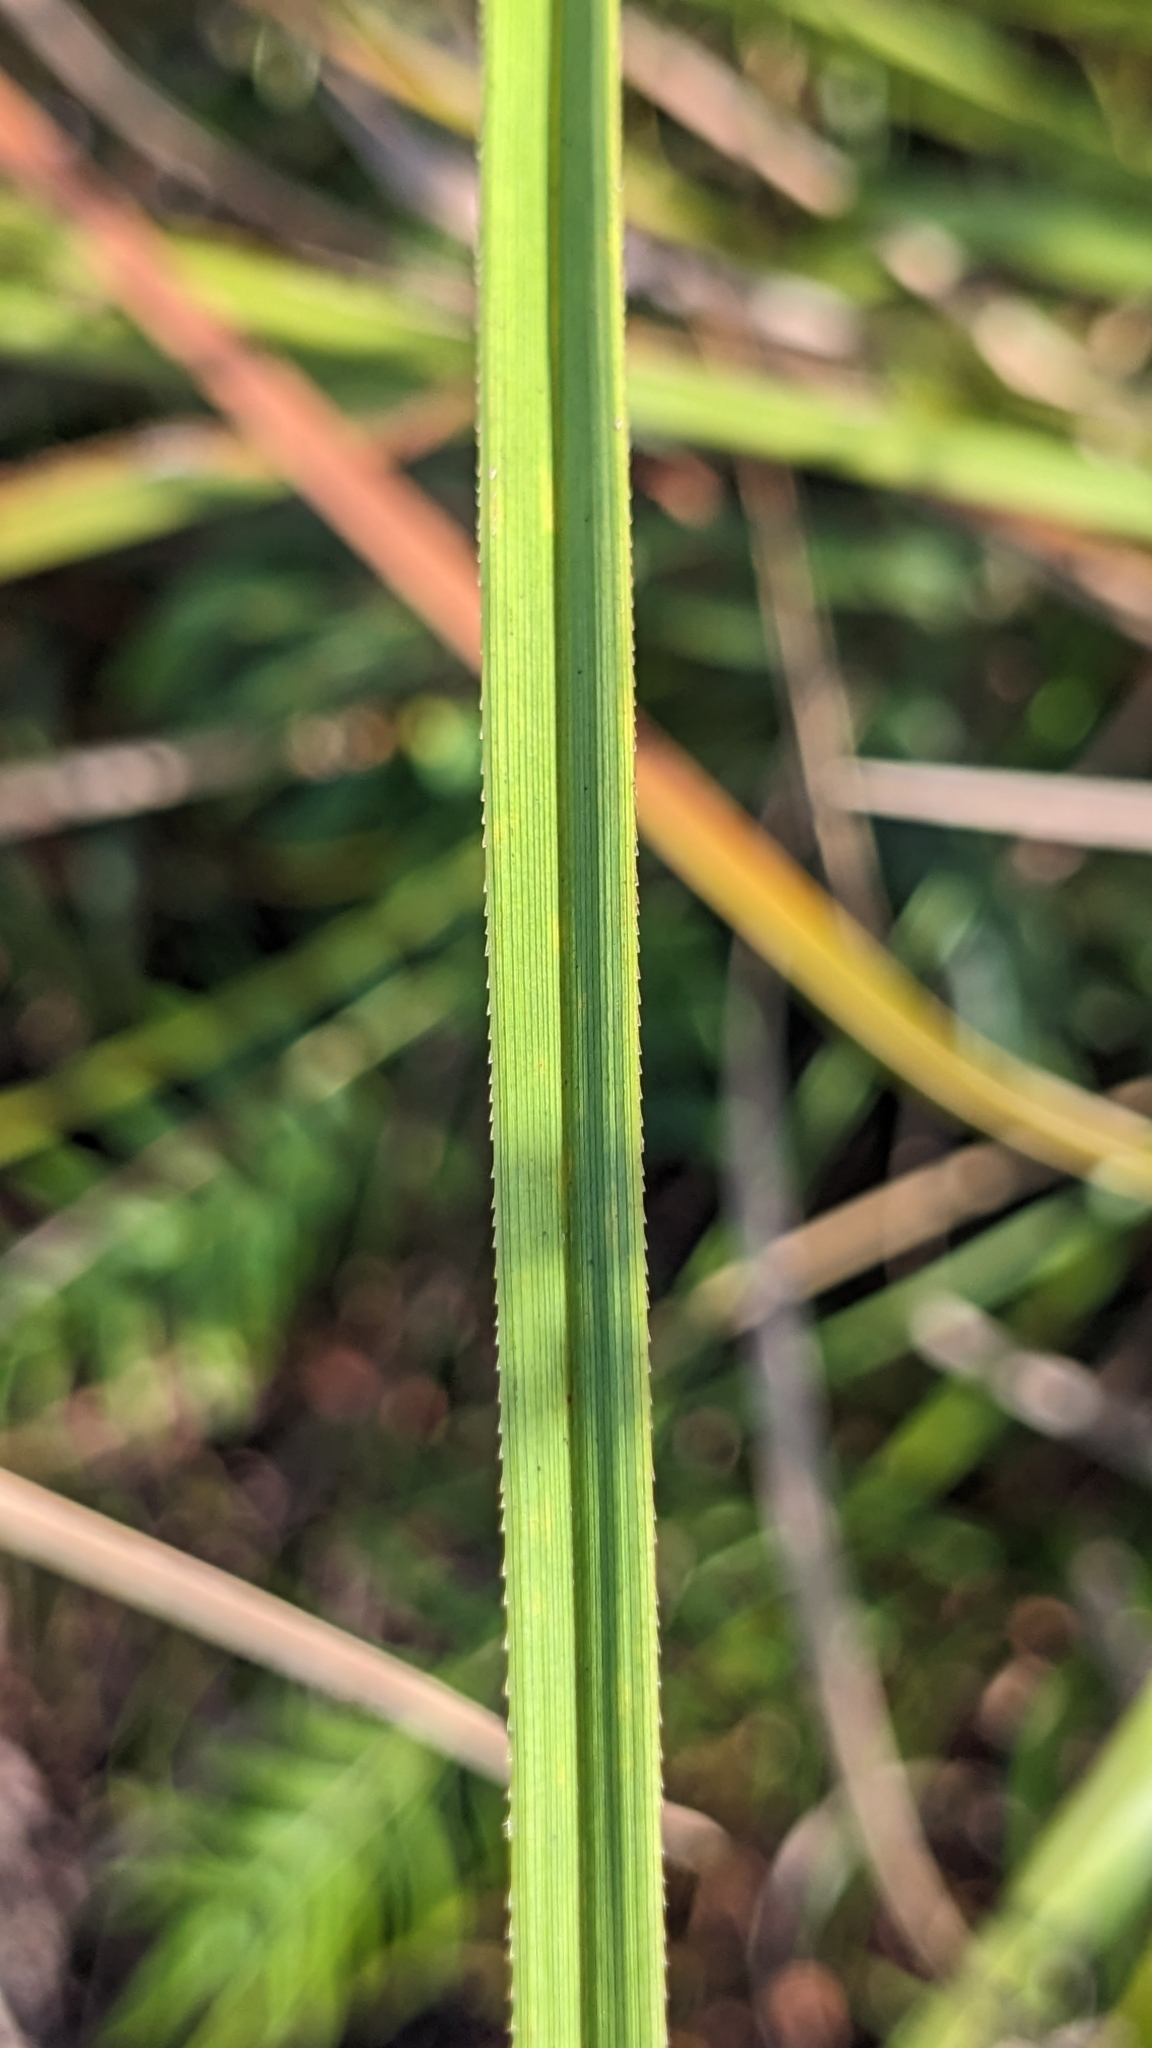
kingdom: Plantae
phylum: Tracheophyta
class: Liliopsida
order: Poales
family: Cyperaceae
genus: Cladium
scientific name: Cladium mariscus
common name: Great fen-sedge
